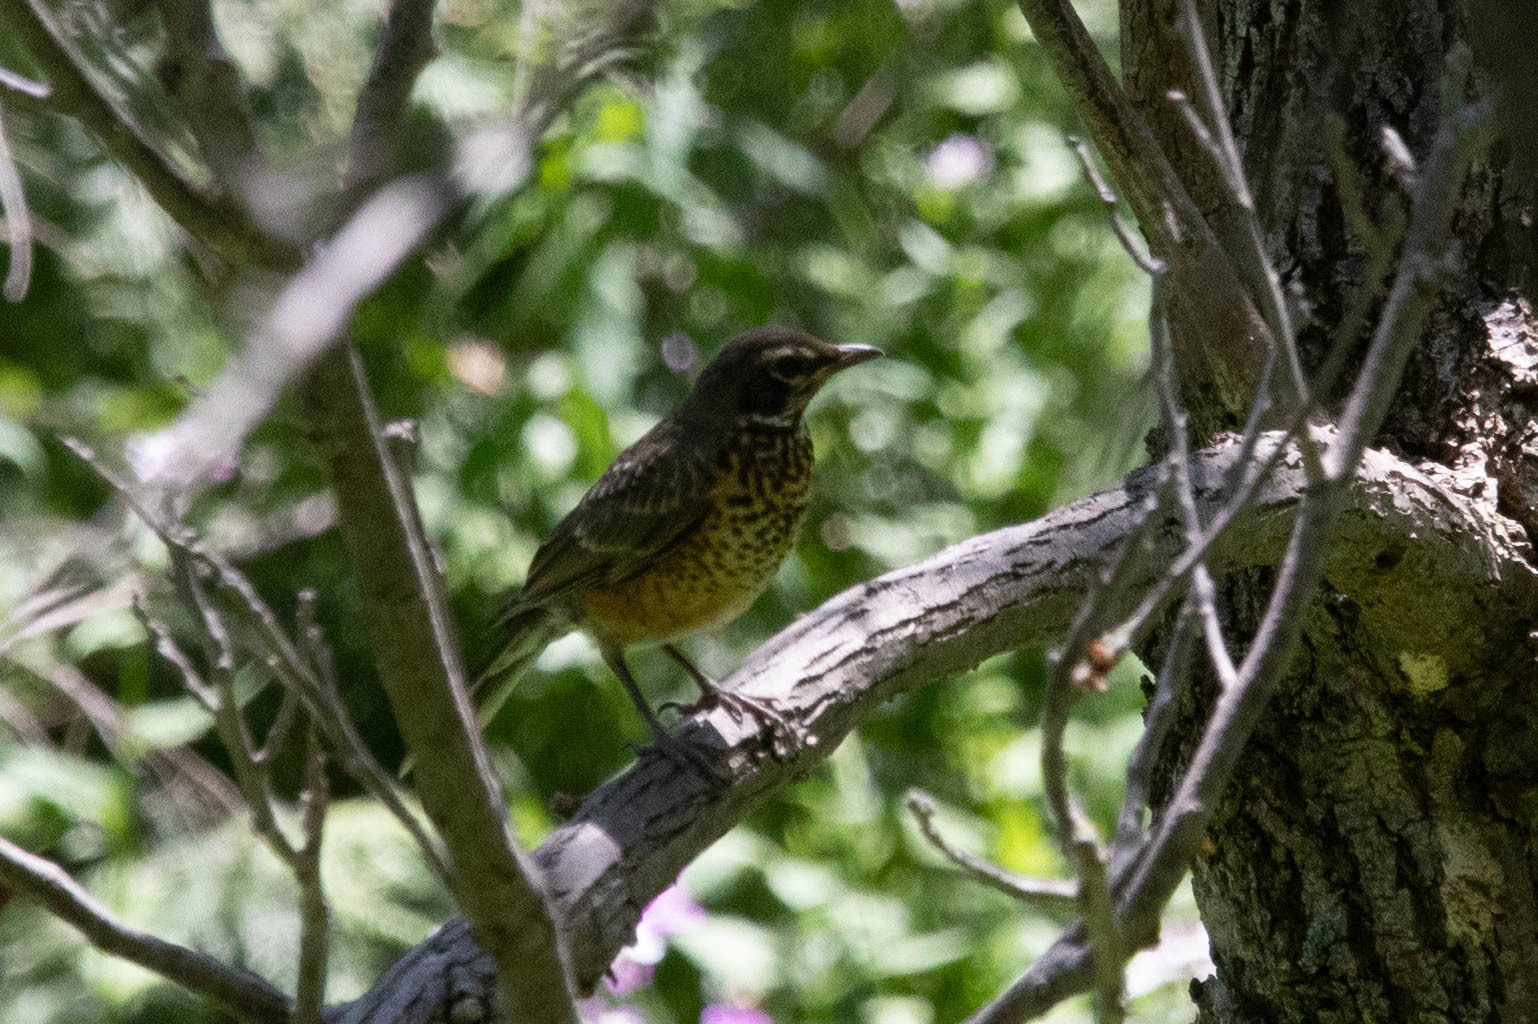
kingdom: Animalia
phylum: Chordata
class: Aves
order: Passeriformes
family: Turdidae
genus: Turdus
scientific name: Turdus migratorius
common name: American robin
